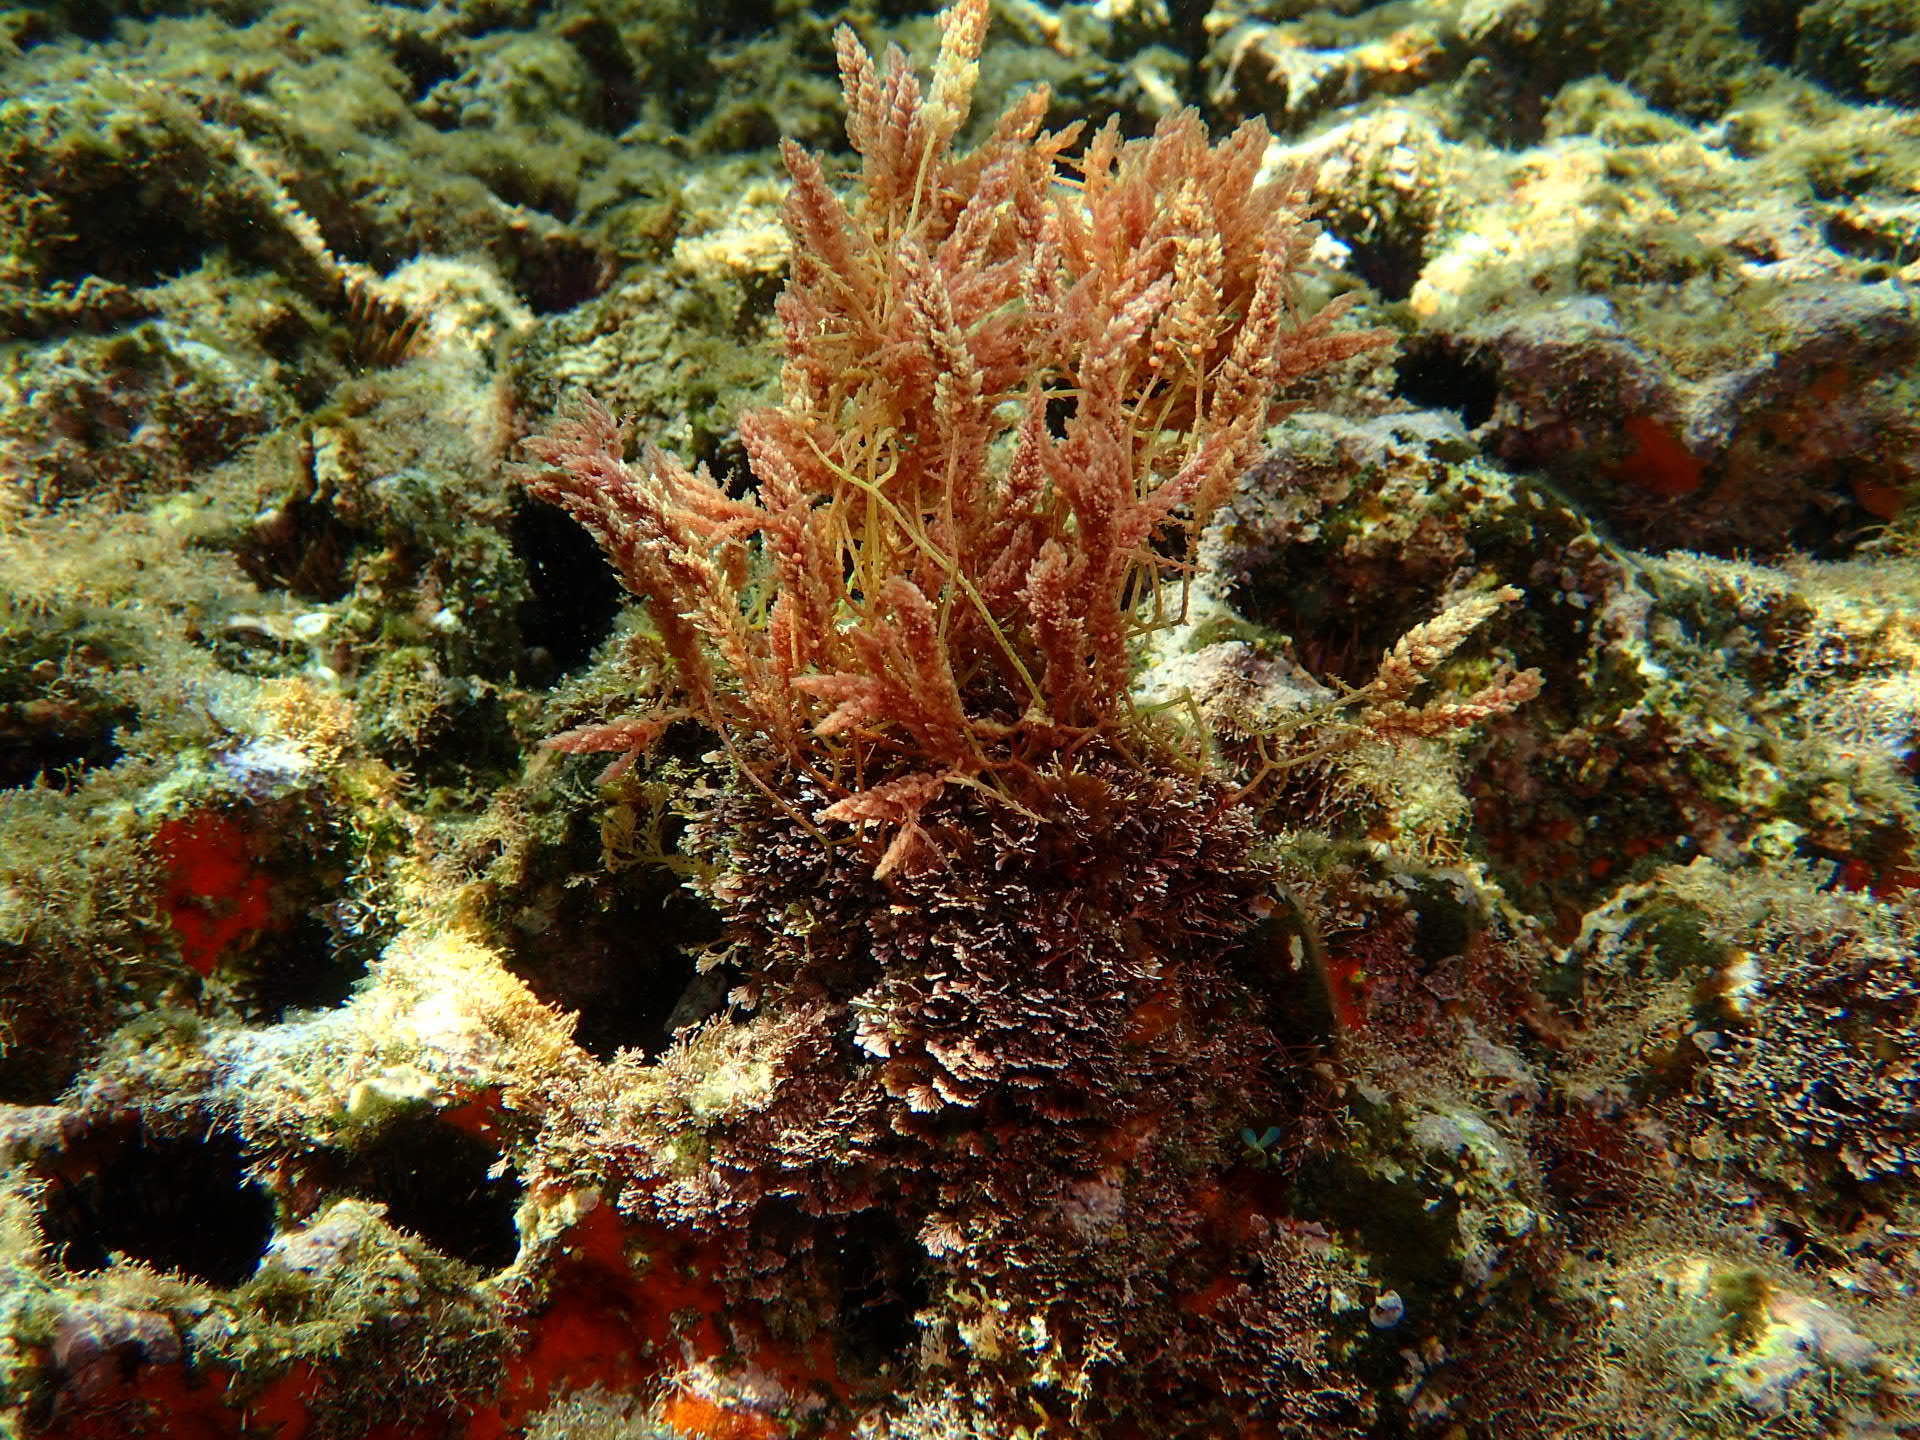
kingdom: Plantae
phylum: Rhodophyta
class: Florideophyceae
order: Bonnemaisoniales
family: Bonnemaisoniaceae
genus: Asparagopsis
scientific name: Asparagopsis armata
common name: Harpoon weed
